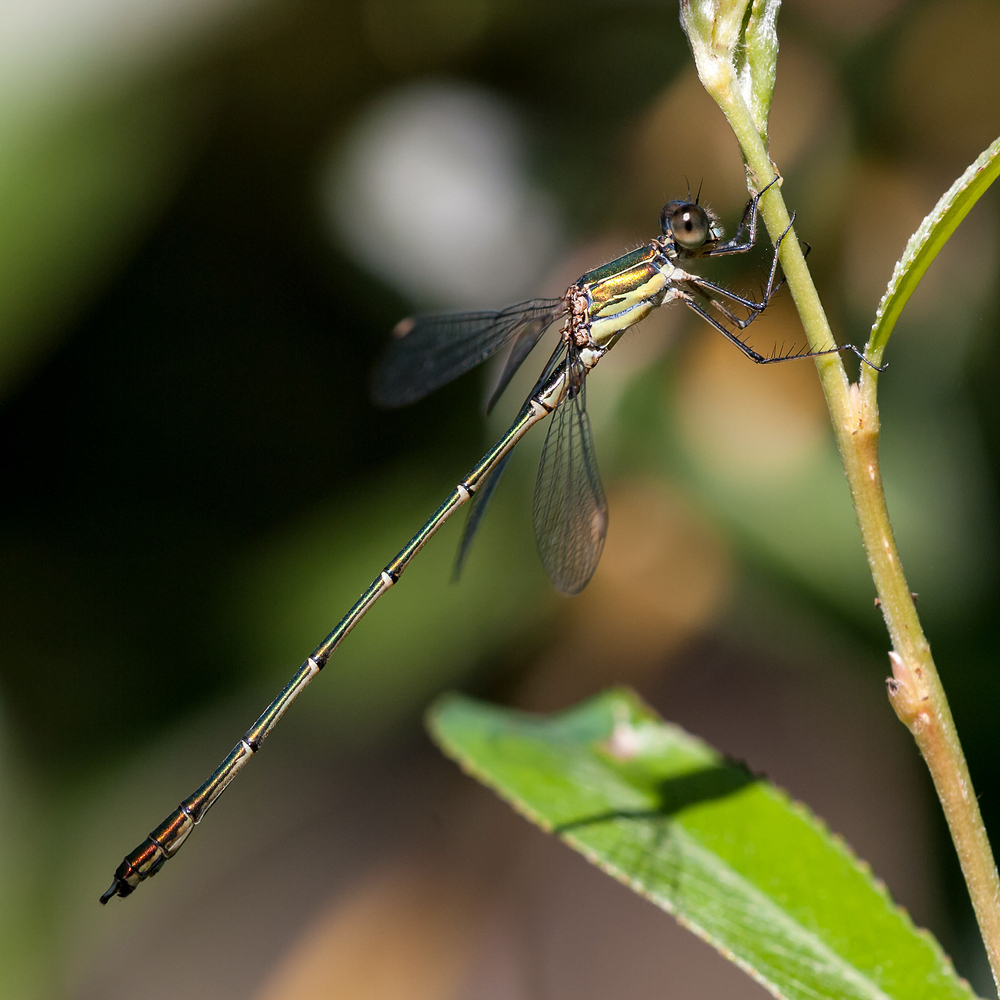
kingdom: Animalia
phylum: Arthropoda
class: Insecta
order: Odonata
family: Lestidae
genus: Chalcolestes
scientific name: Chalcolestes viridis
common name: Green emerald damselfly
